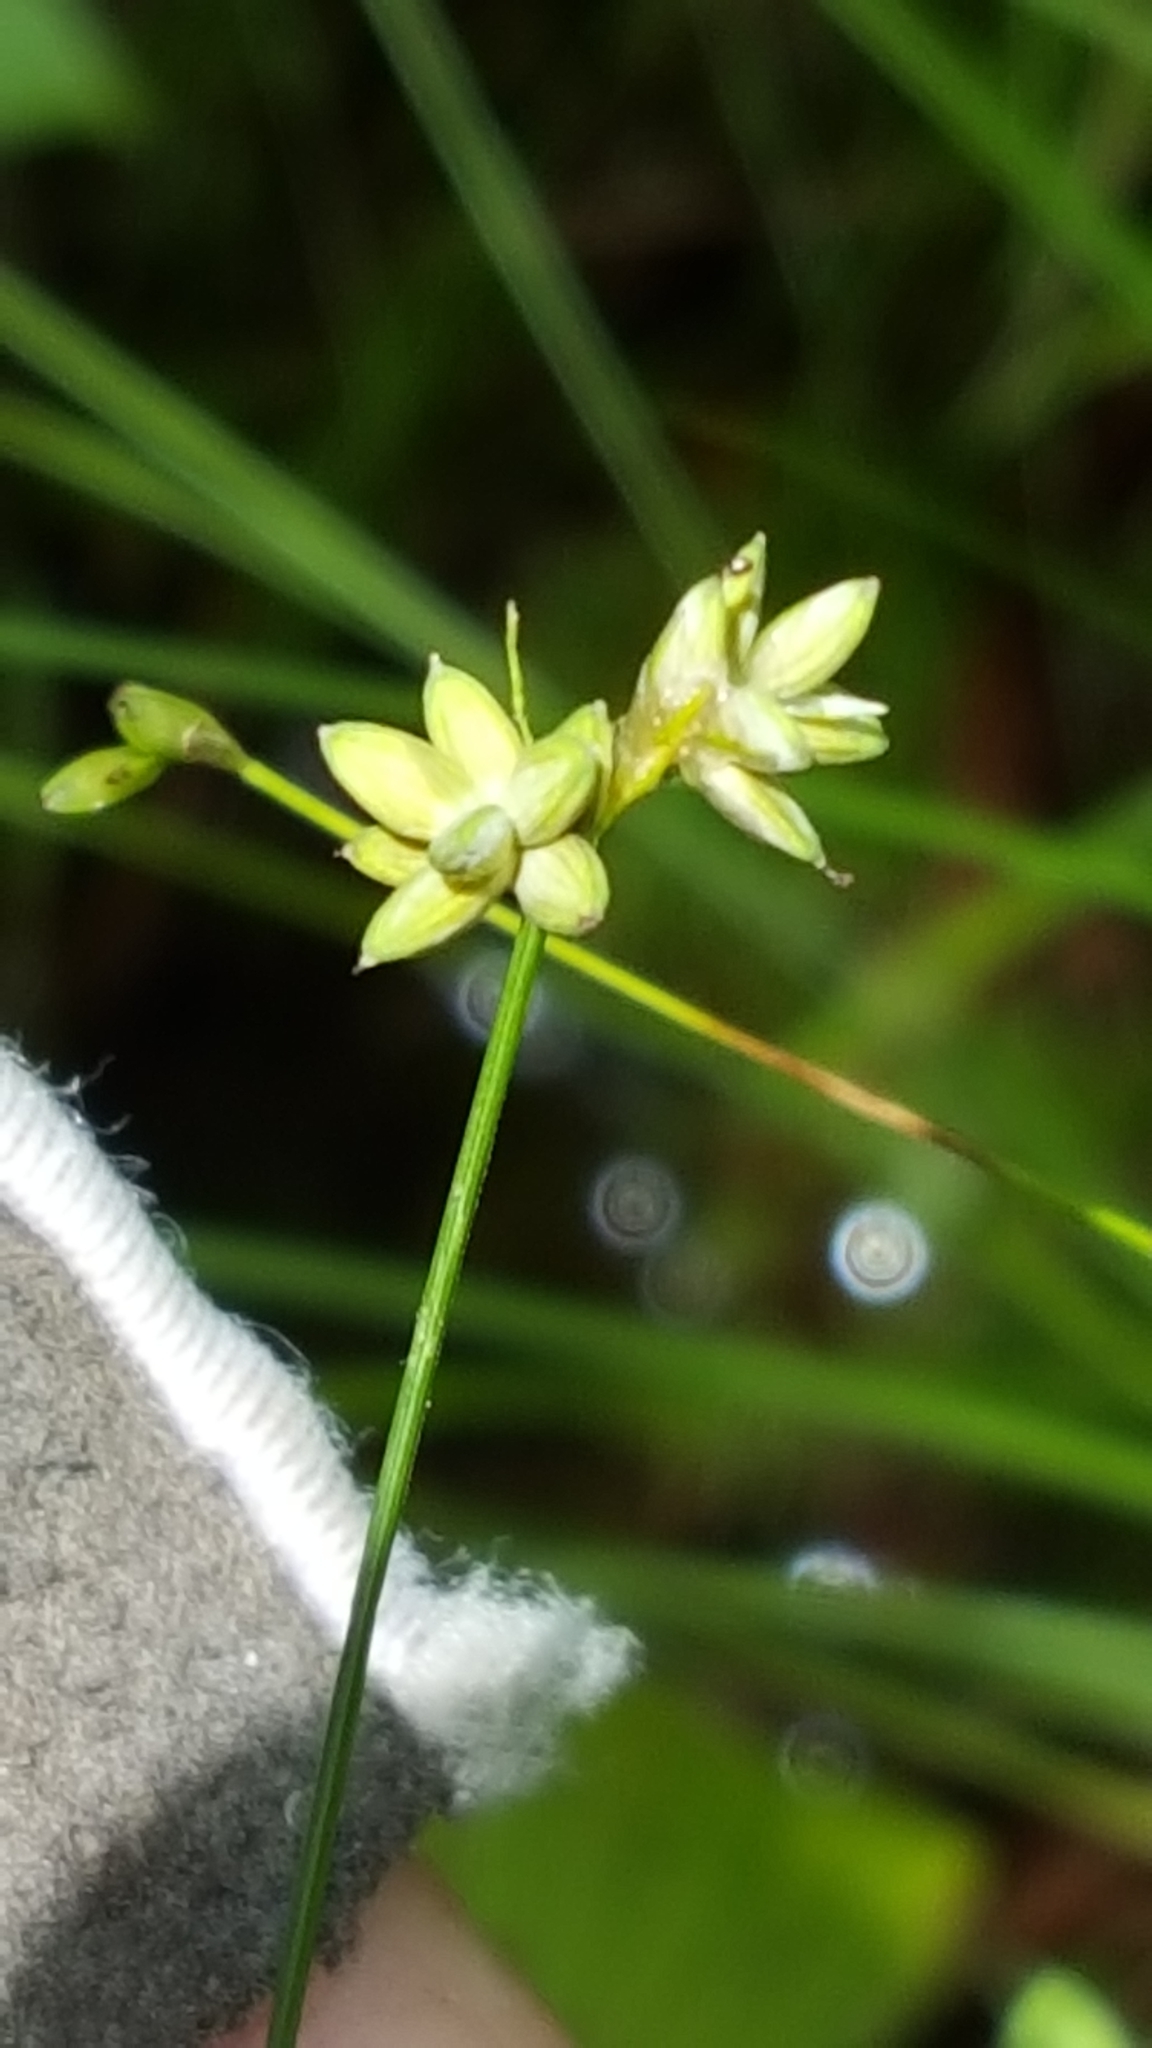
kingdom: Plantae
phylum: Tracheophyta
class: Liliopsida
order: Poales
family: Cyperaceae
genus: Carex
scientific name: Carex tenuiflora
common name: Sparse-flowered sedge
